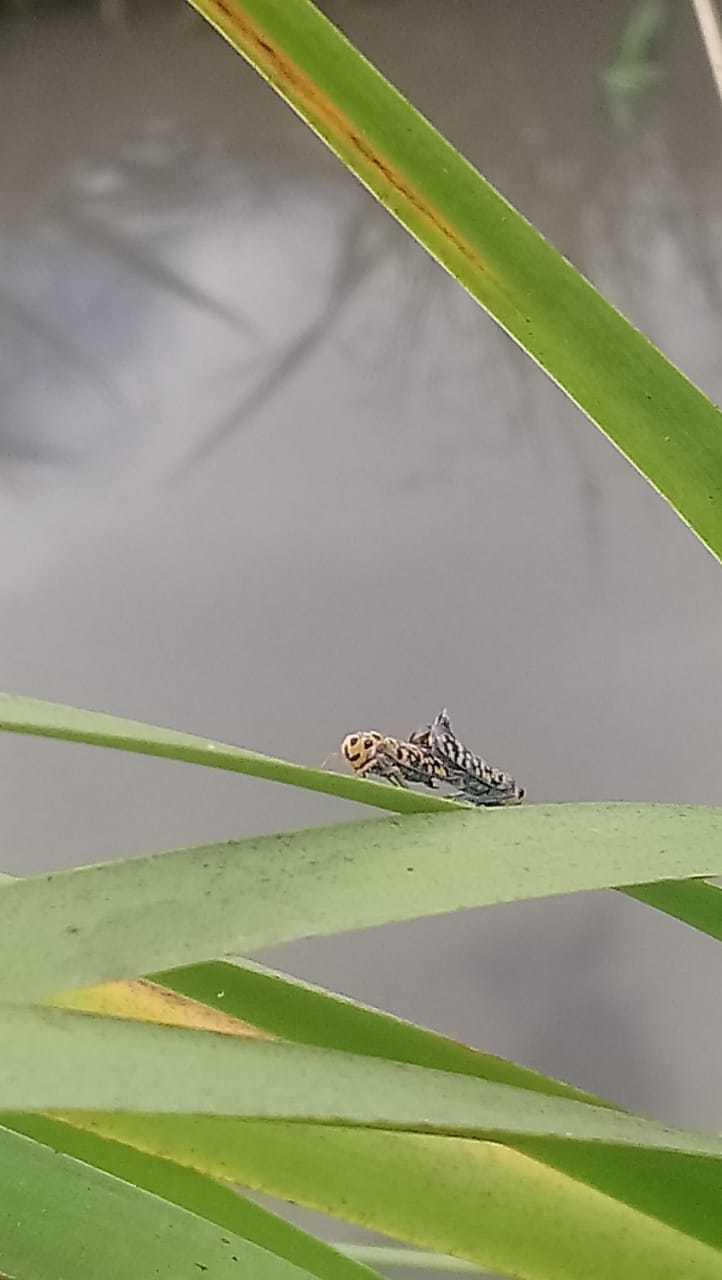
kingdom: Animalia
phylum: Arthropoda
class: Insecta
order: Hemiptera
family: Cicadellidae
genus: Pawiloma
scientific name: Pawiloma victima
